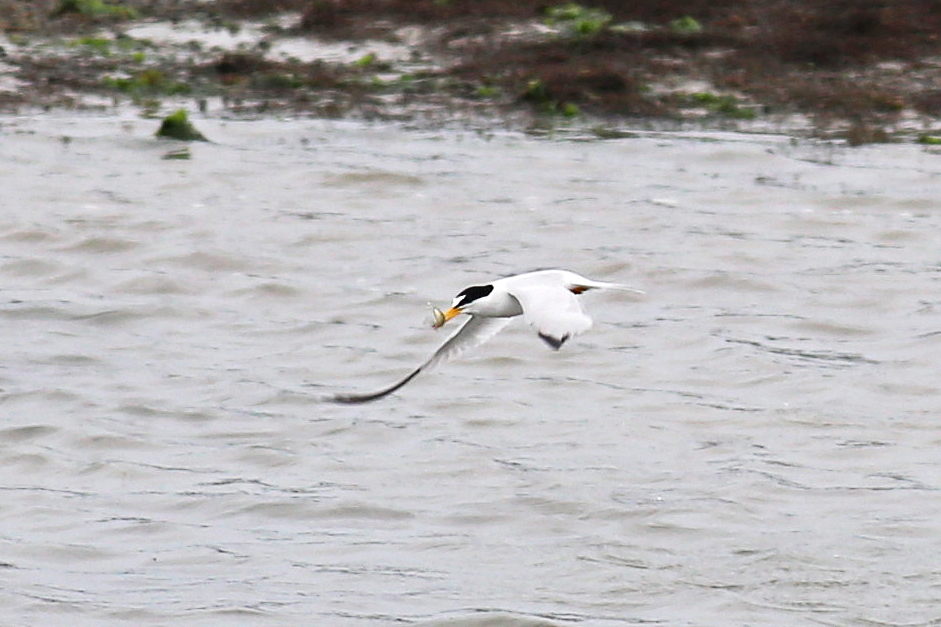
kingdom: Animalia
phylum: Chordata
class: Aves
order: Charadriiformes
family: Laridae
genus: Sternula
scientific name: Sternula antillarum
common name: Least tern
